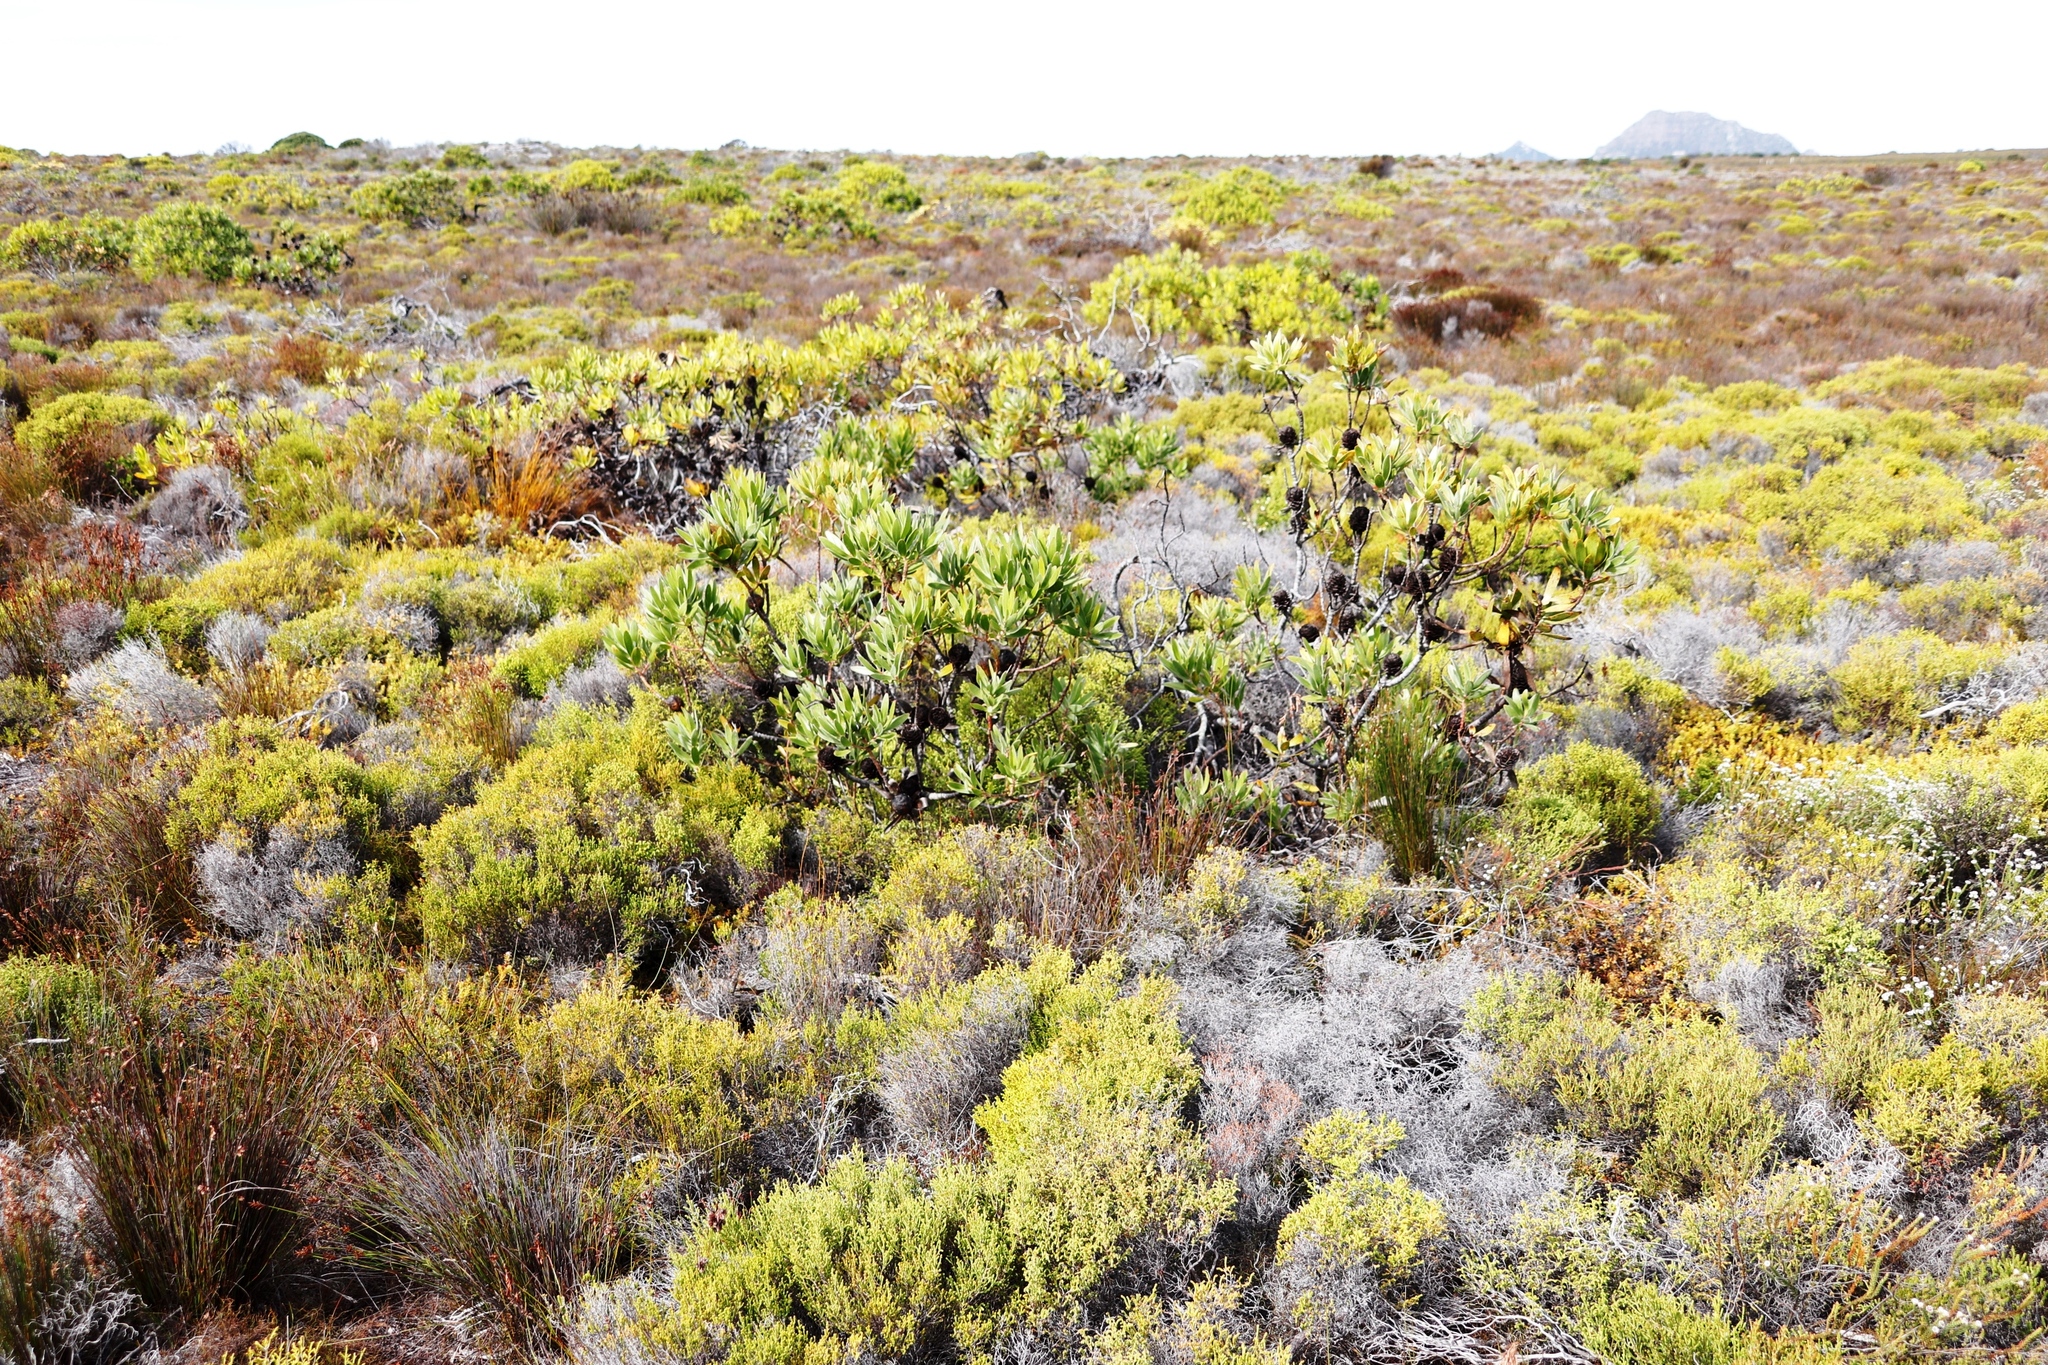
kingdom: Plantae
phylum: Tracheophyta
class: Magnoliopsida
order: Proteales
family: Proteaceae
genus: Leucadendron
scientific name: Leucadendron laureolum
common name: Golden sunshinebush
